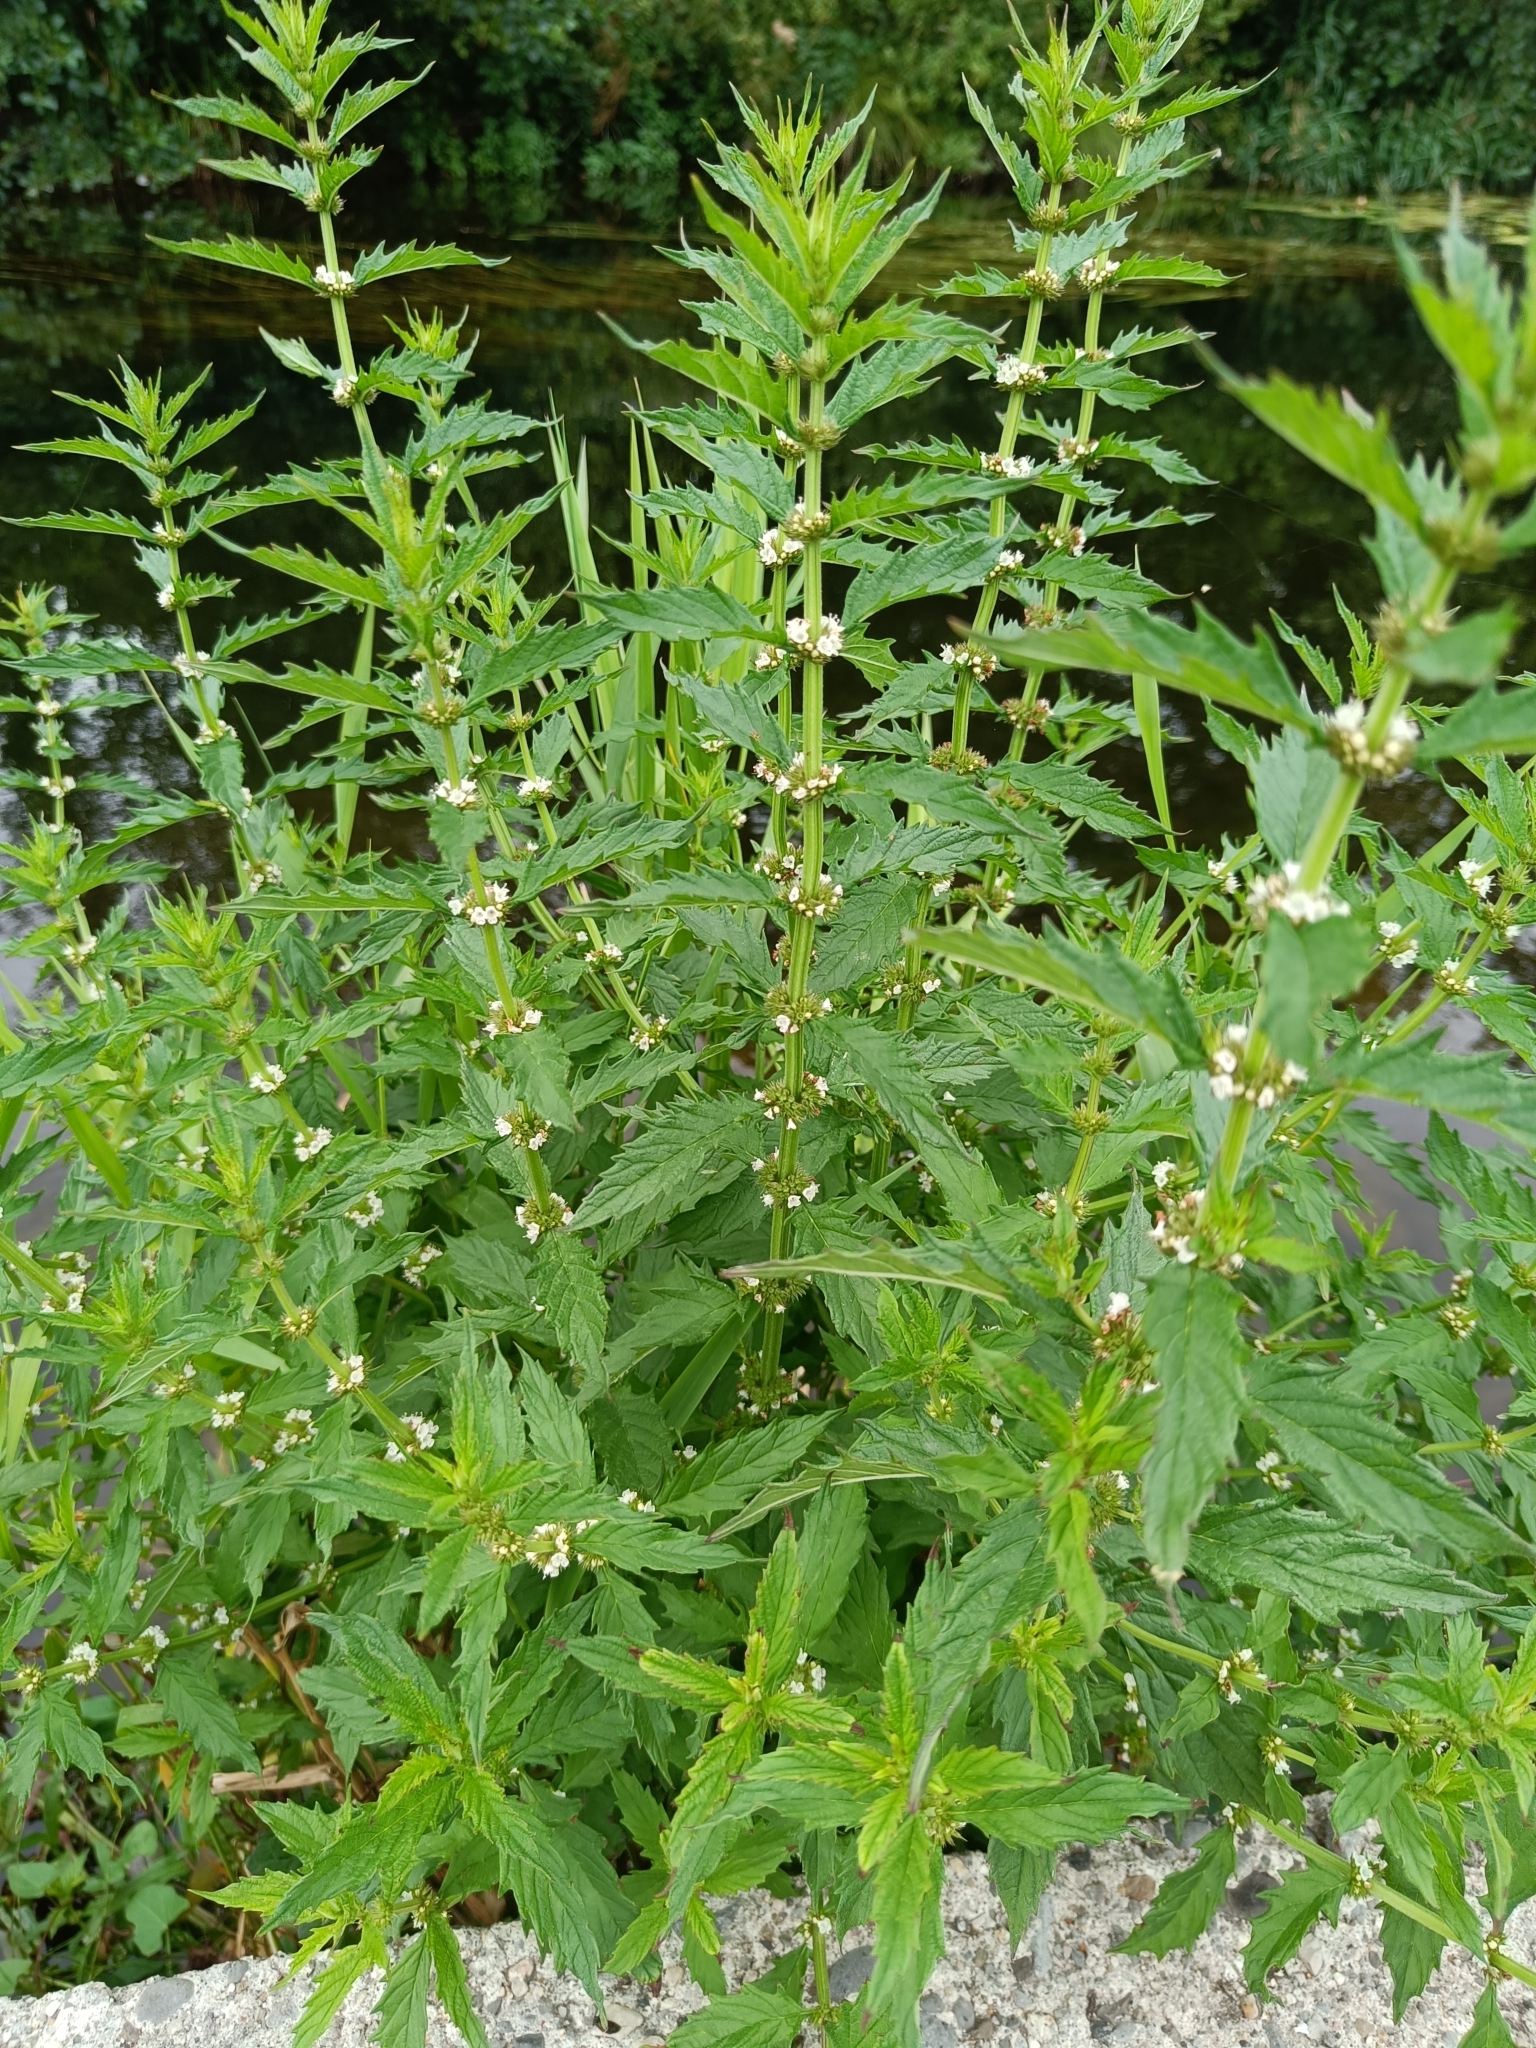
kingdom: Plantae
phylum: Tracheophyta
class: Magnoliopsida
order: Lamiales
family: Lamiaceae
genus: Lycopus
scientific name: Lycopus europaeus
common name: European bugleweed
